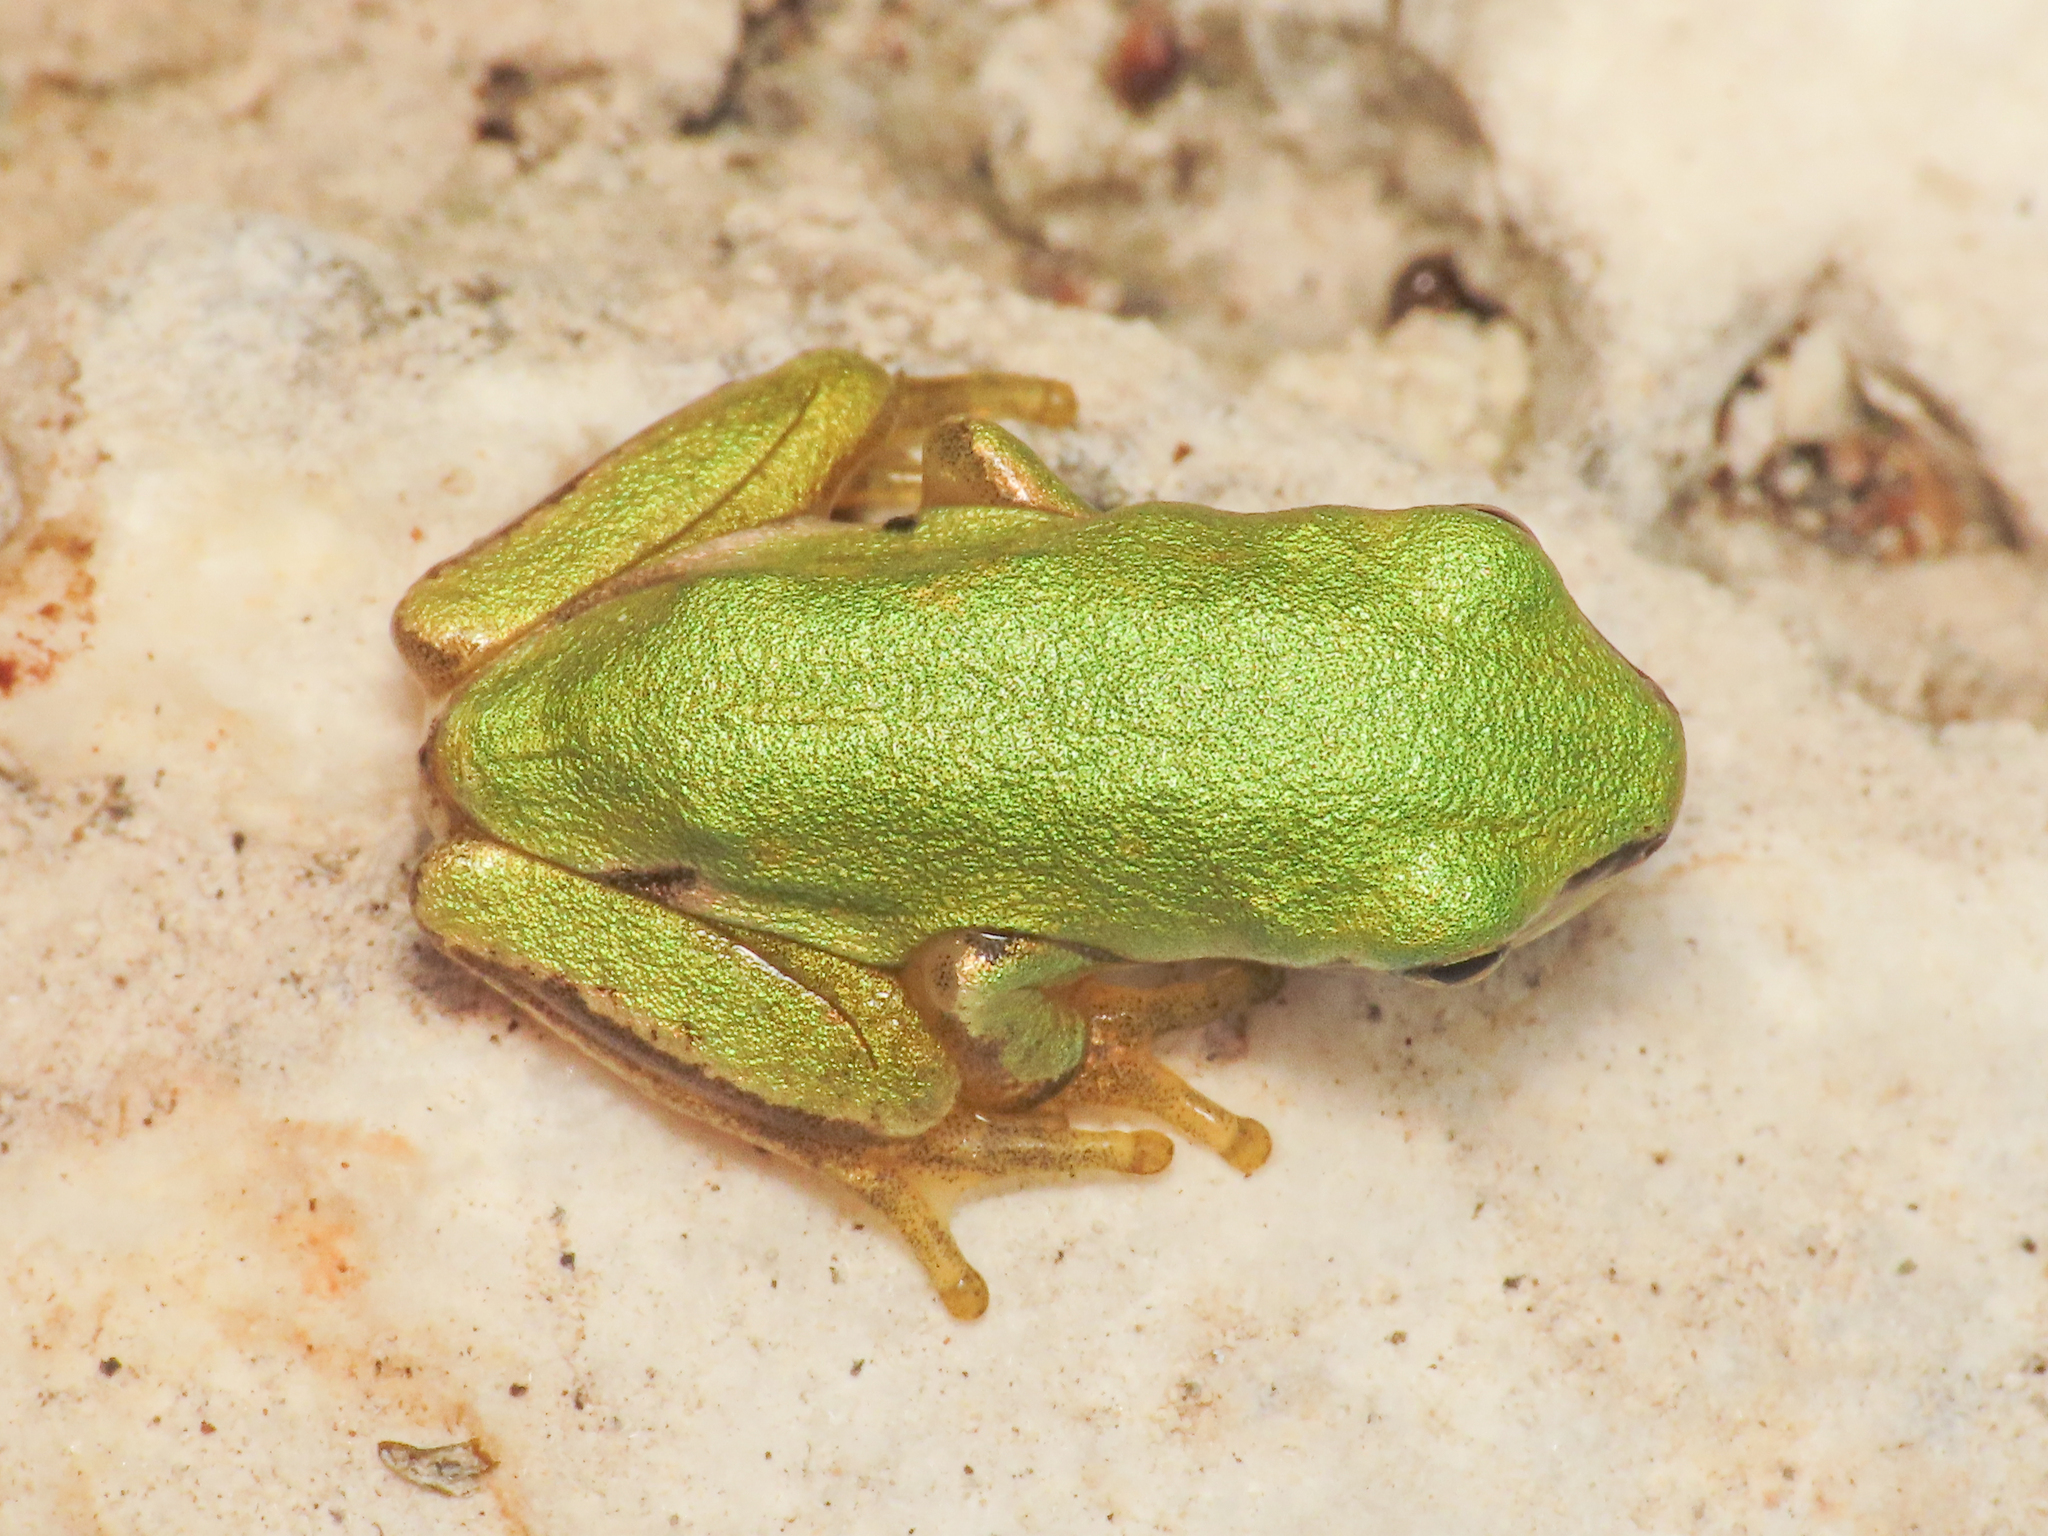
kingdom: Animalia
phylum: Chordata
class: Amphibia
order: Anura
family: Hylidae
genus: Hyla
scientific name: Hyla intermedia
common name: Italian tree frog
